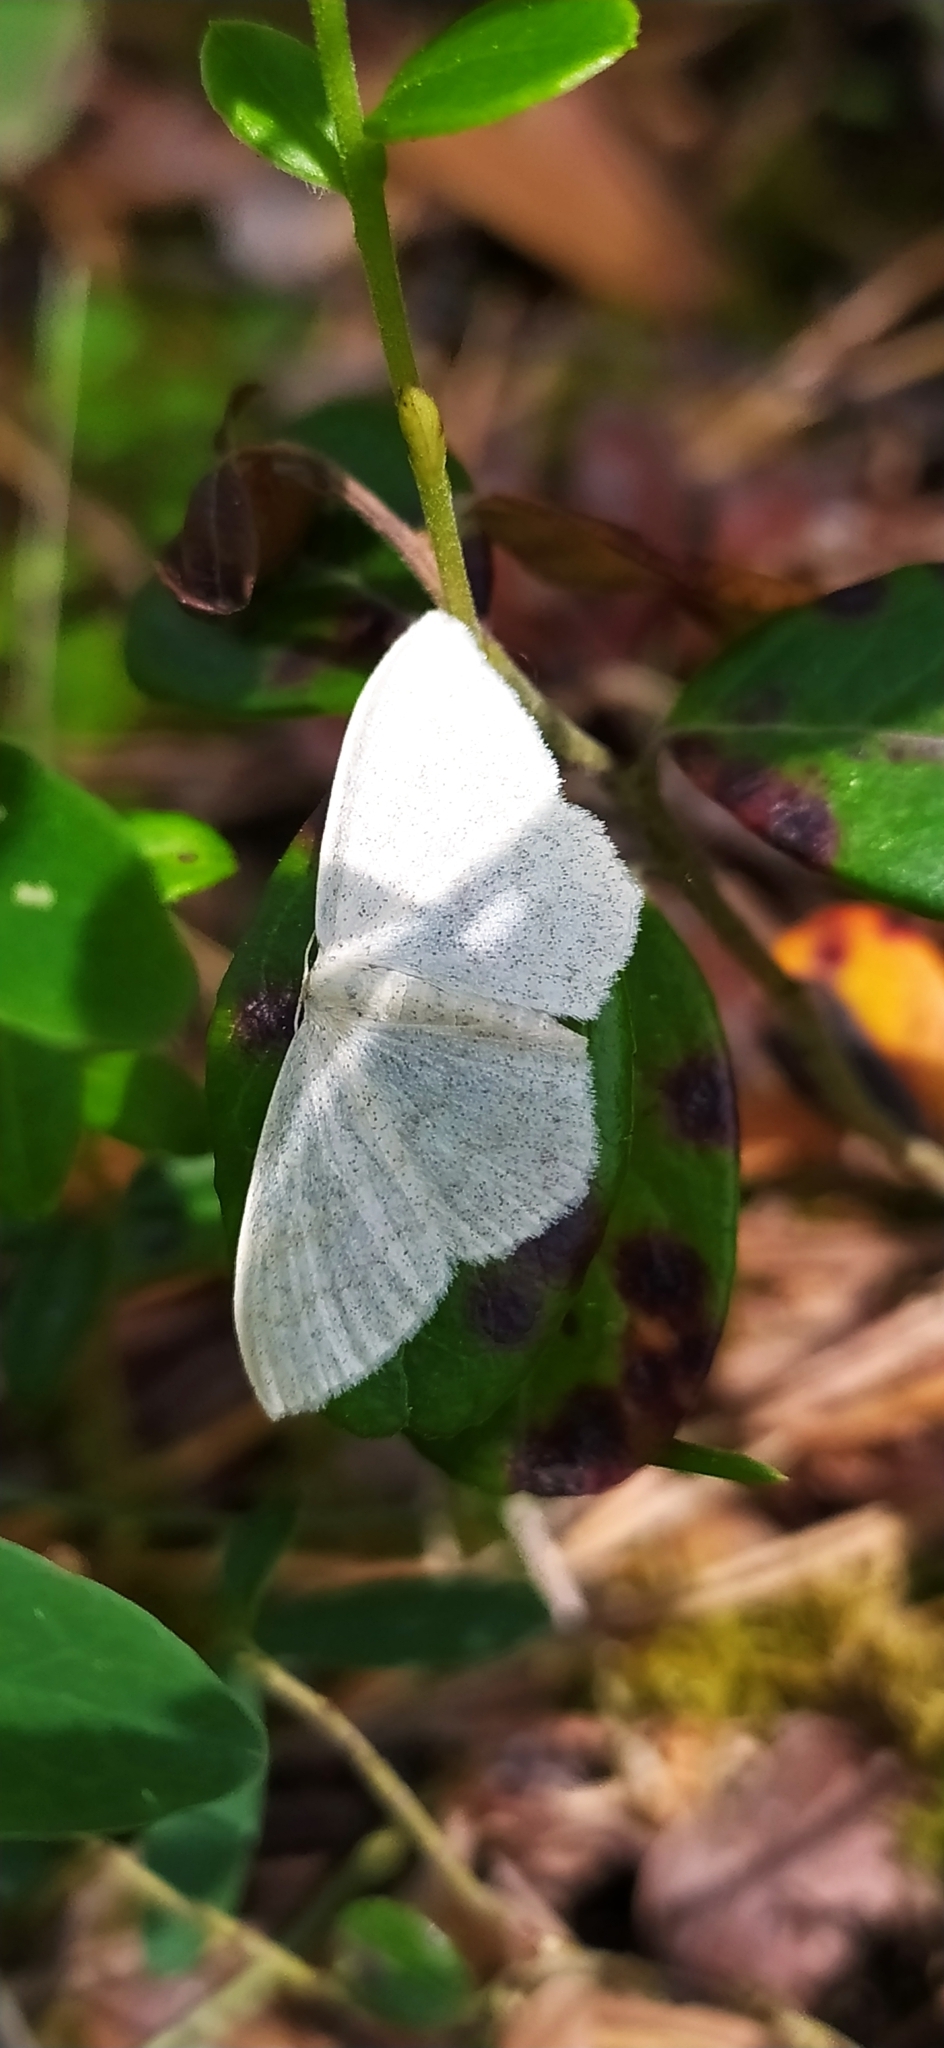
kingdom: Animalia
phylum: Arthropoda
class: Insecta
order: Lepidoptera
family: Geometridae
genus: Scopula
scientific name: Scopula floslactata
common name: Cream wave
